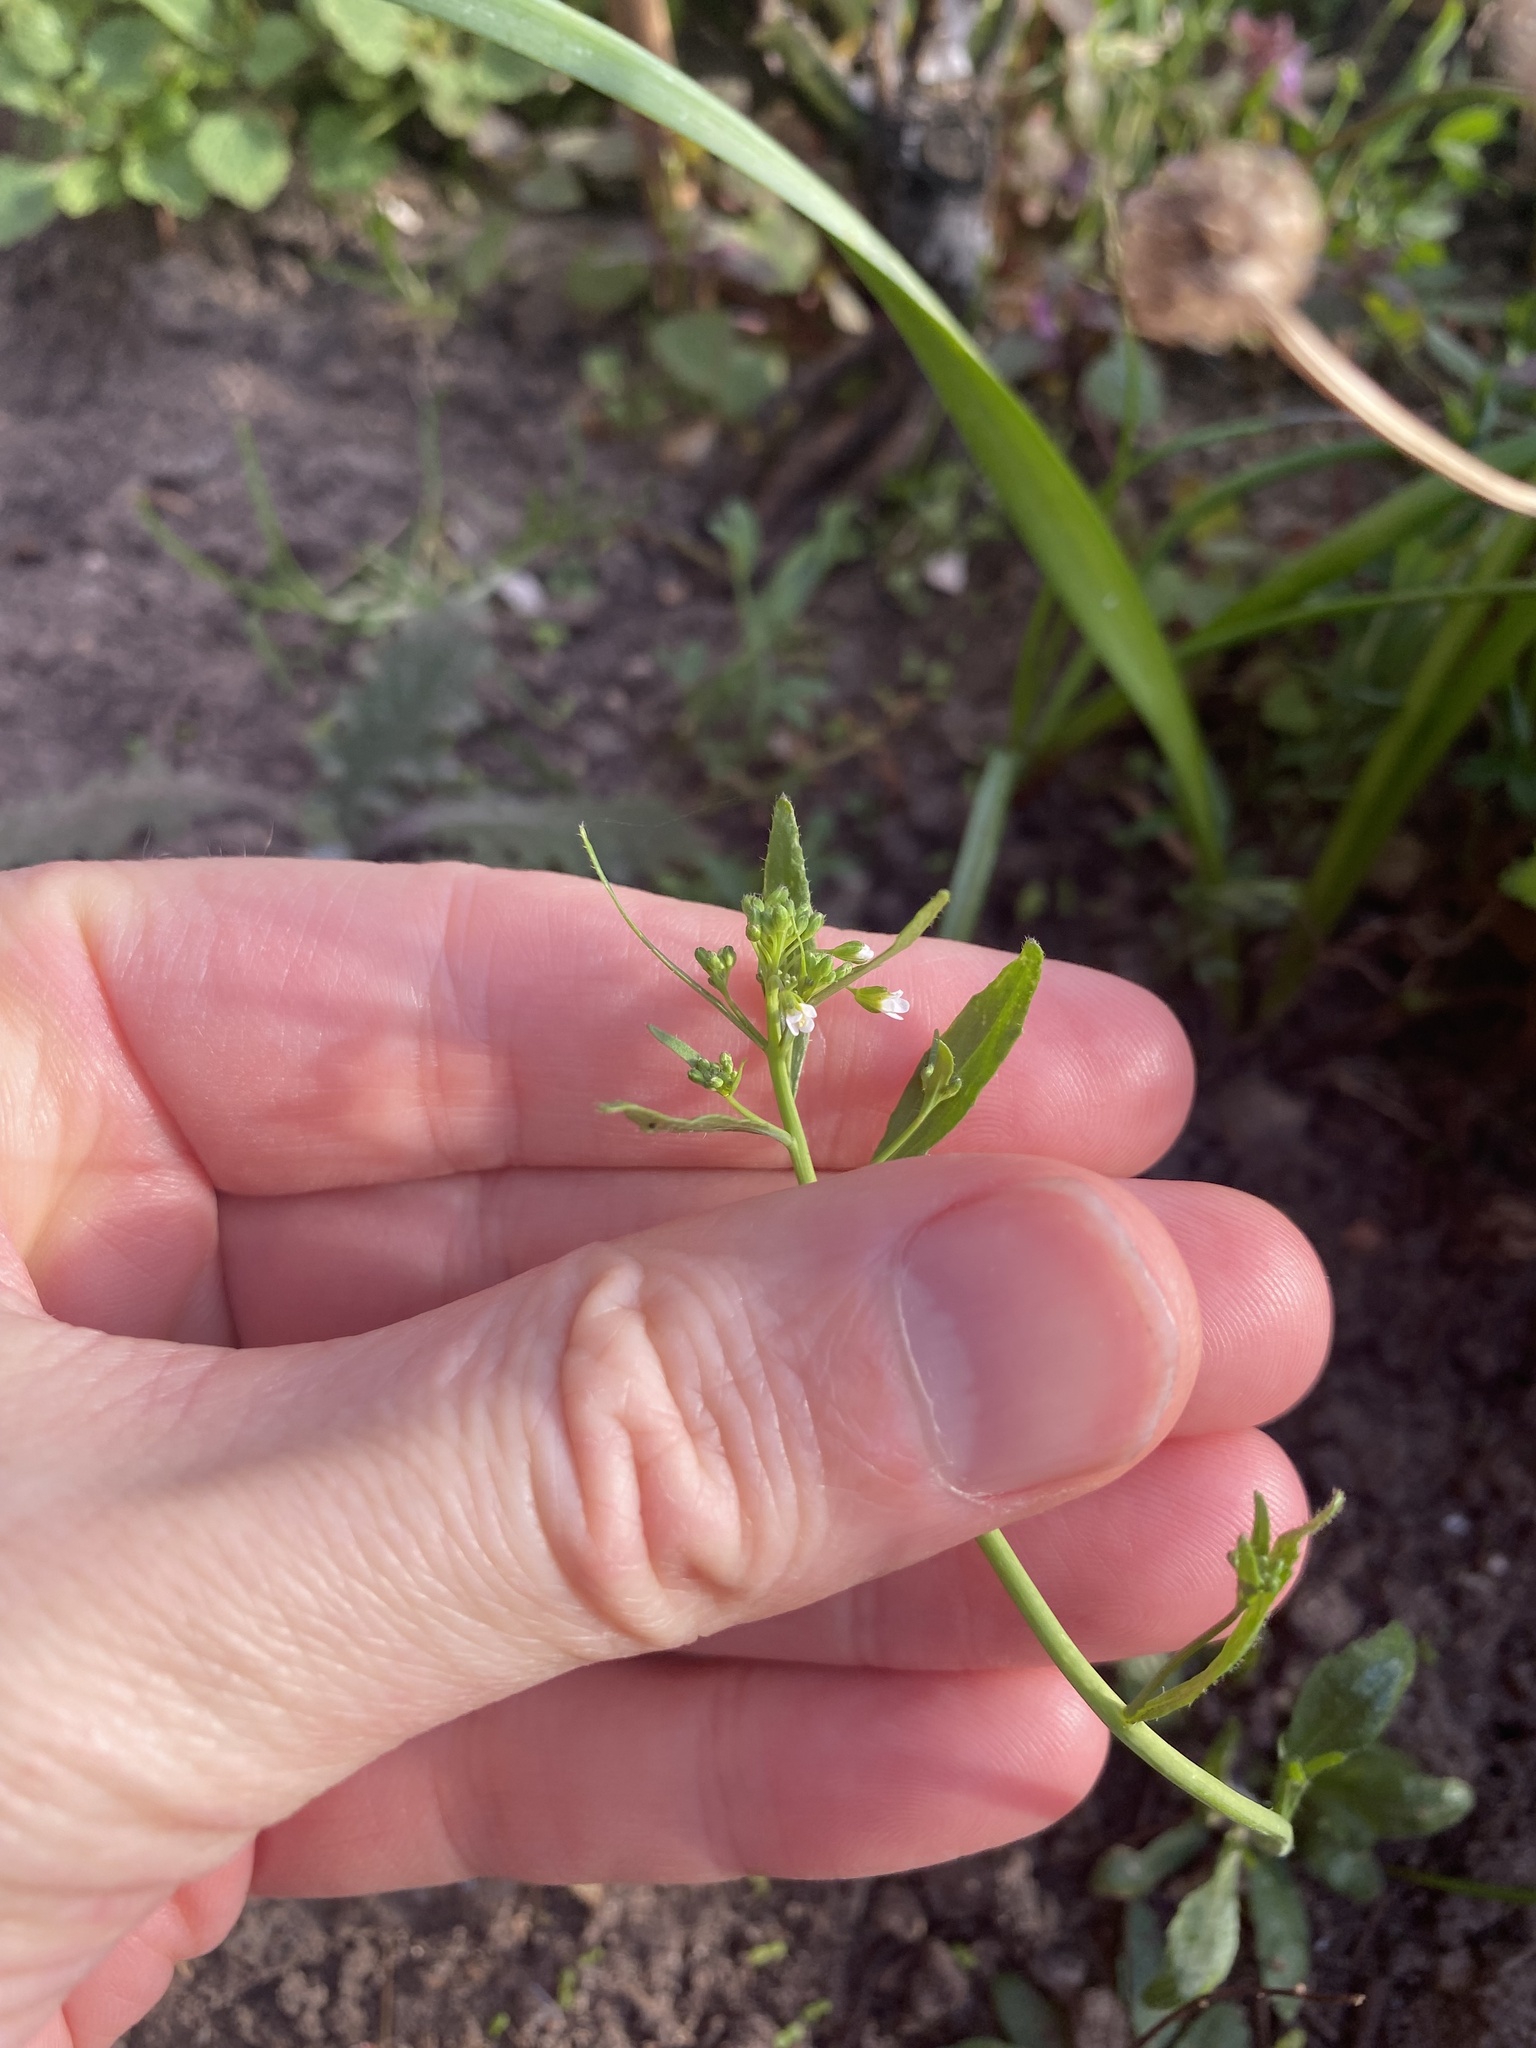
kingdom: Plantae
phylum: Tracheophyta
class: Magnoliopsida
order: Brassicales
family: Brassicaceae
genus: Arabidopsis
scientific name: Arabidopsis thaliana
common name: Thale cress
